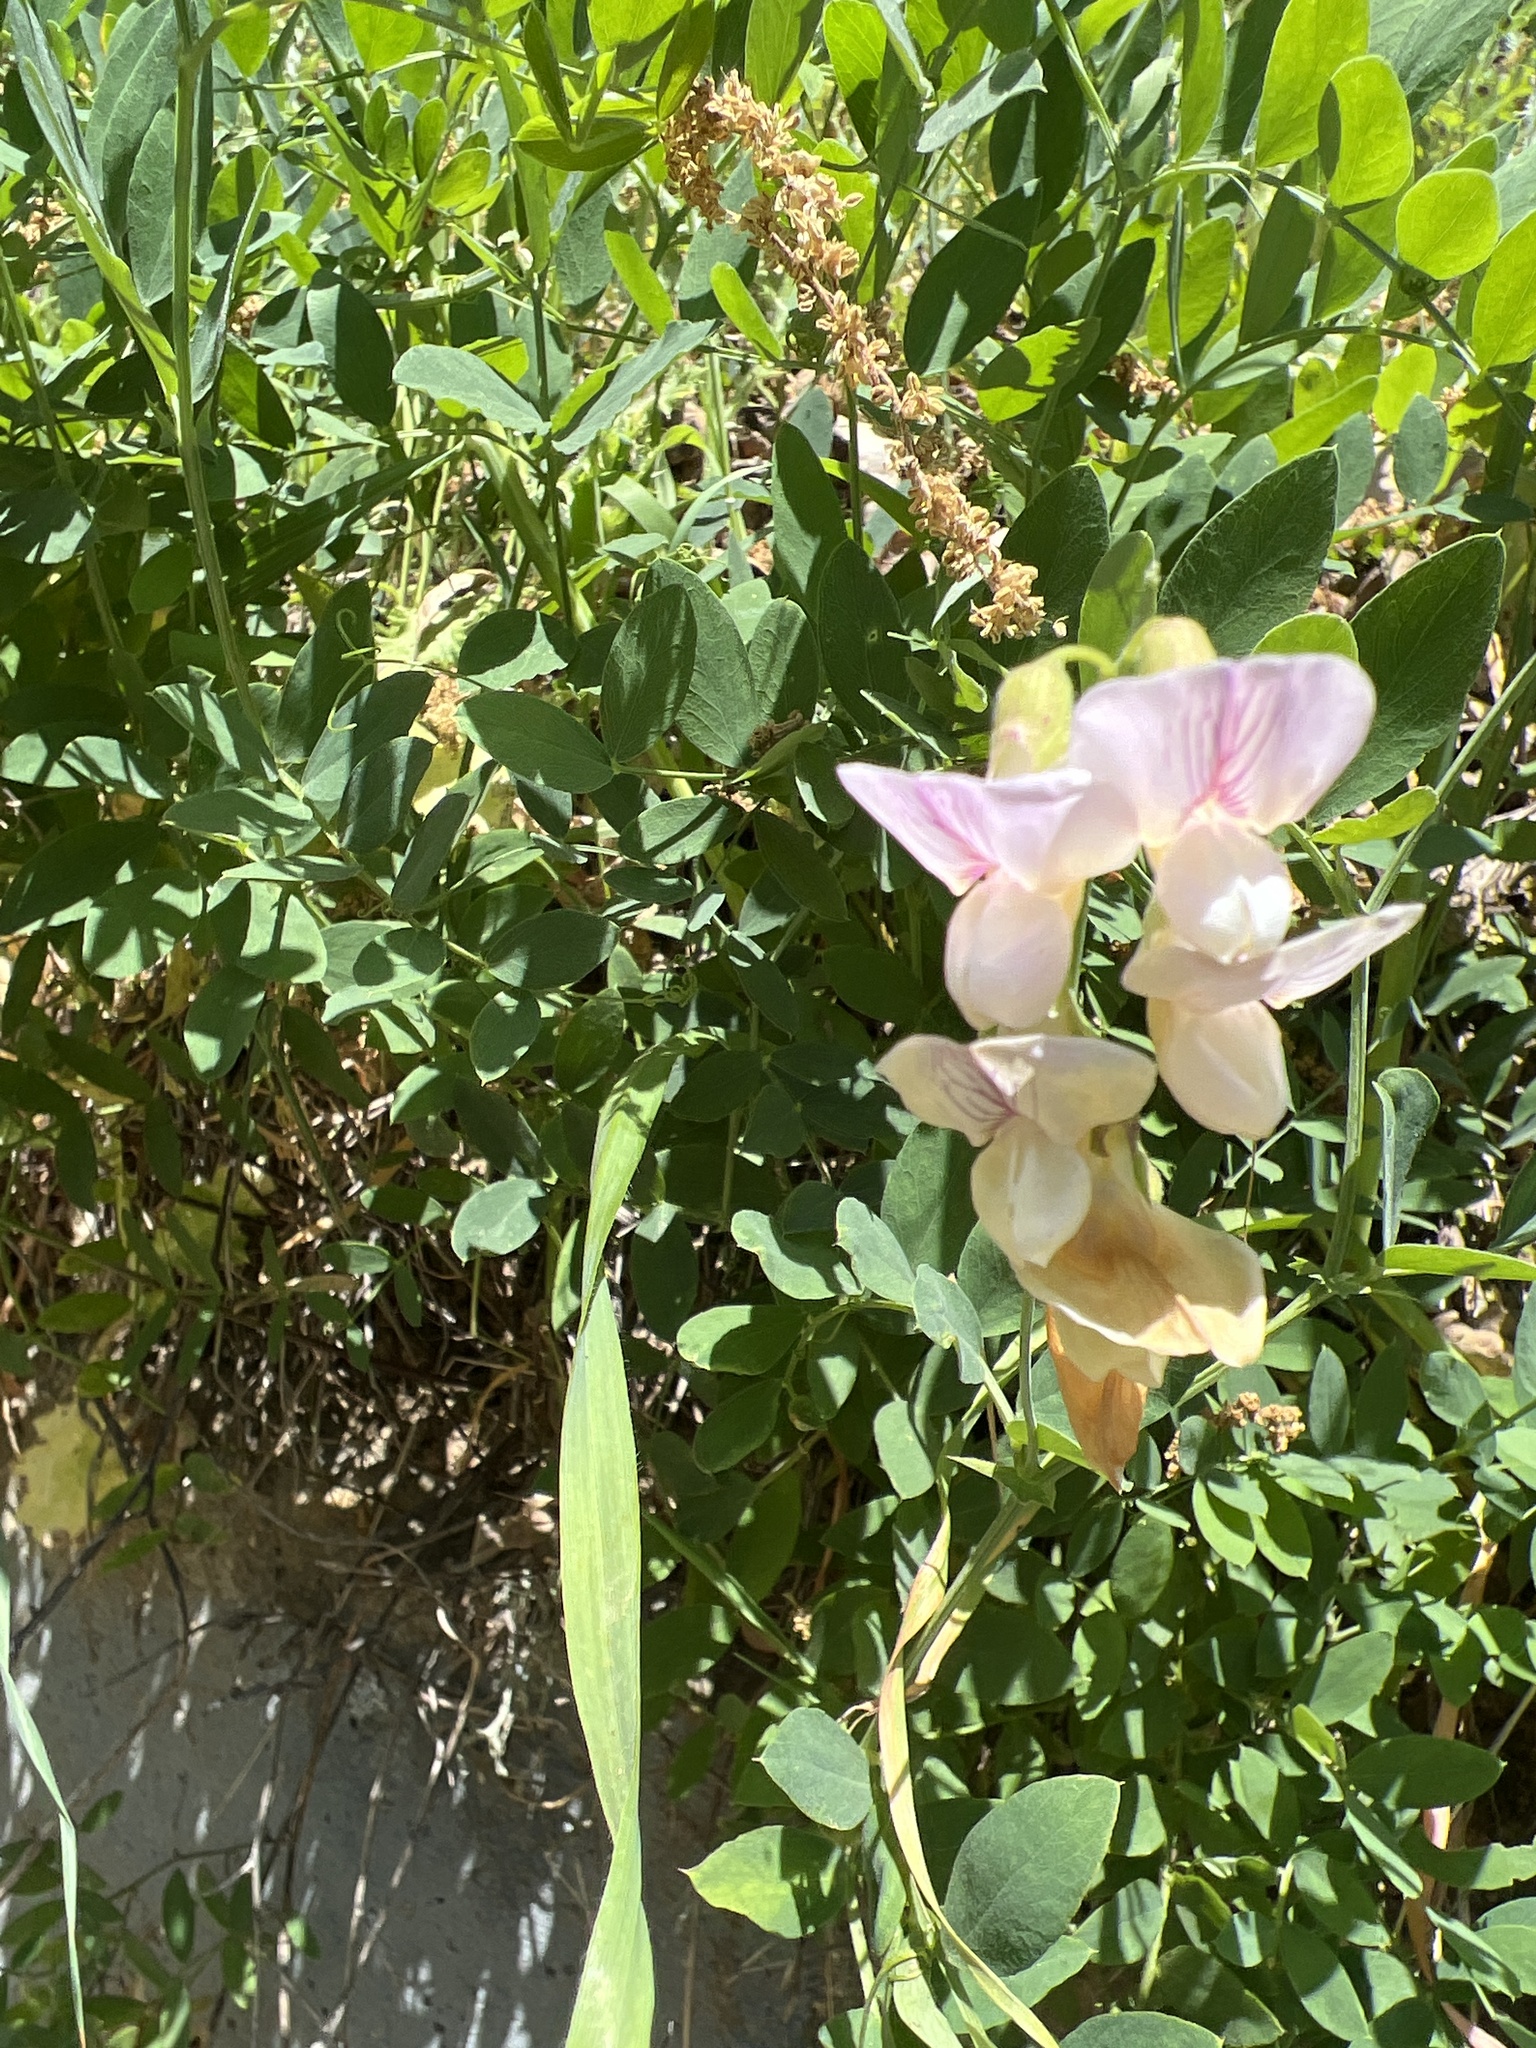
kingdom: Plantae
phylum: Tracheophyta
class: Magnoliopsida
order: Fabales
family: Fabaceae
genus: Lathyrus
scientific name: Lathyrus vestitus
